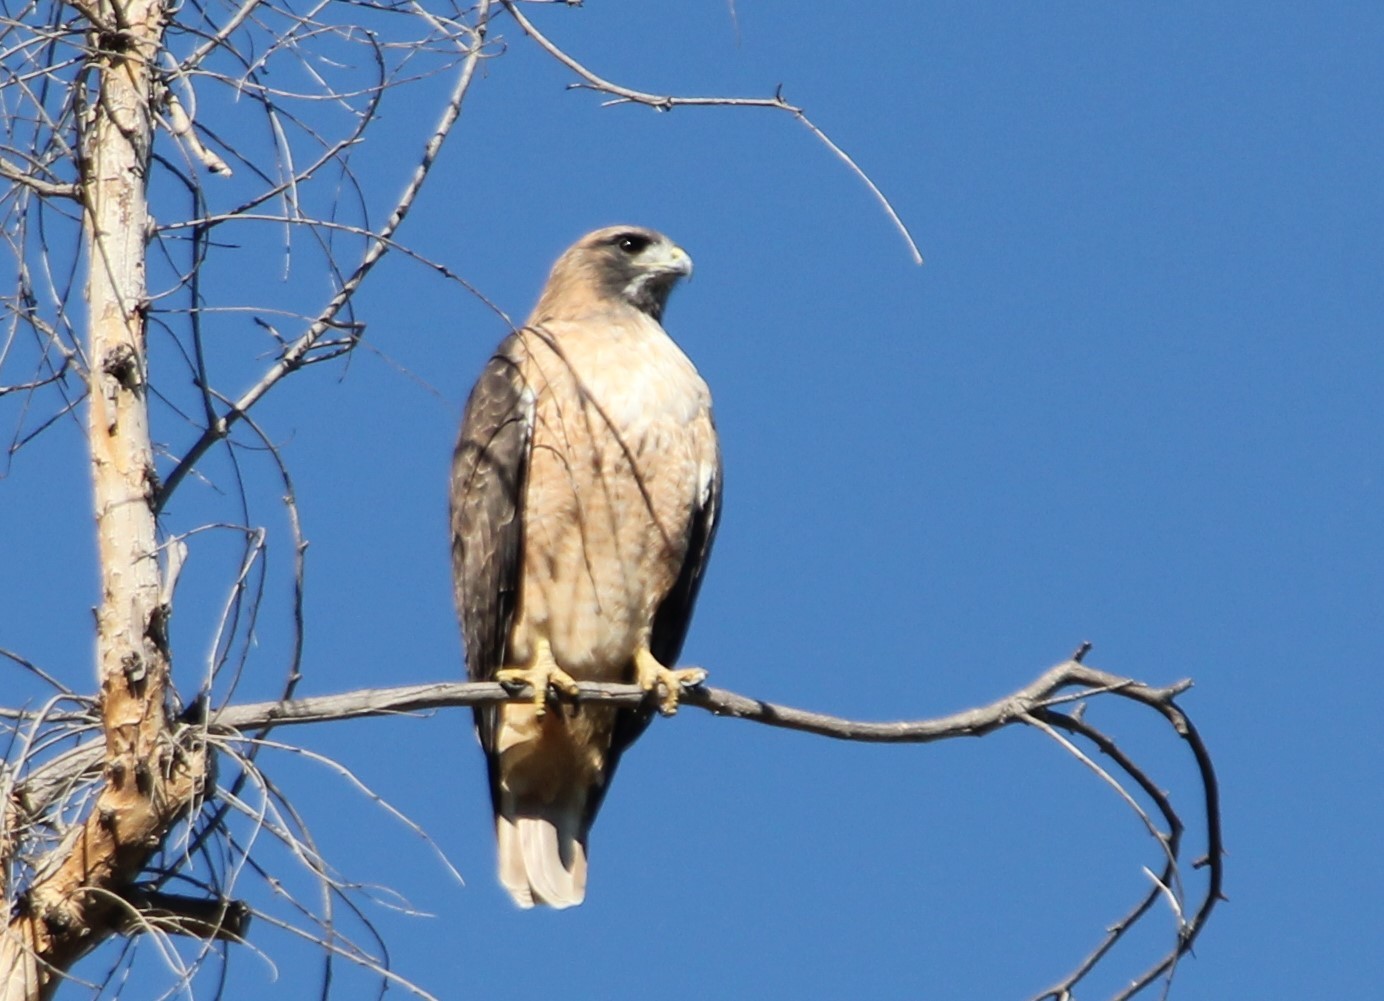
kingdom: Animalia
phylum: Chordata
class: Aves
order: Accipitriformes
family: Accipitridae
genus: Buteo
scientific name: Buteo jamaicensis
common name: Red-tailed hawk
